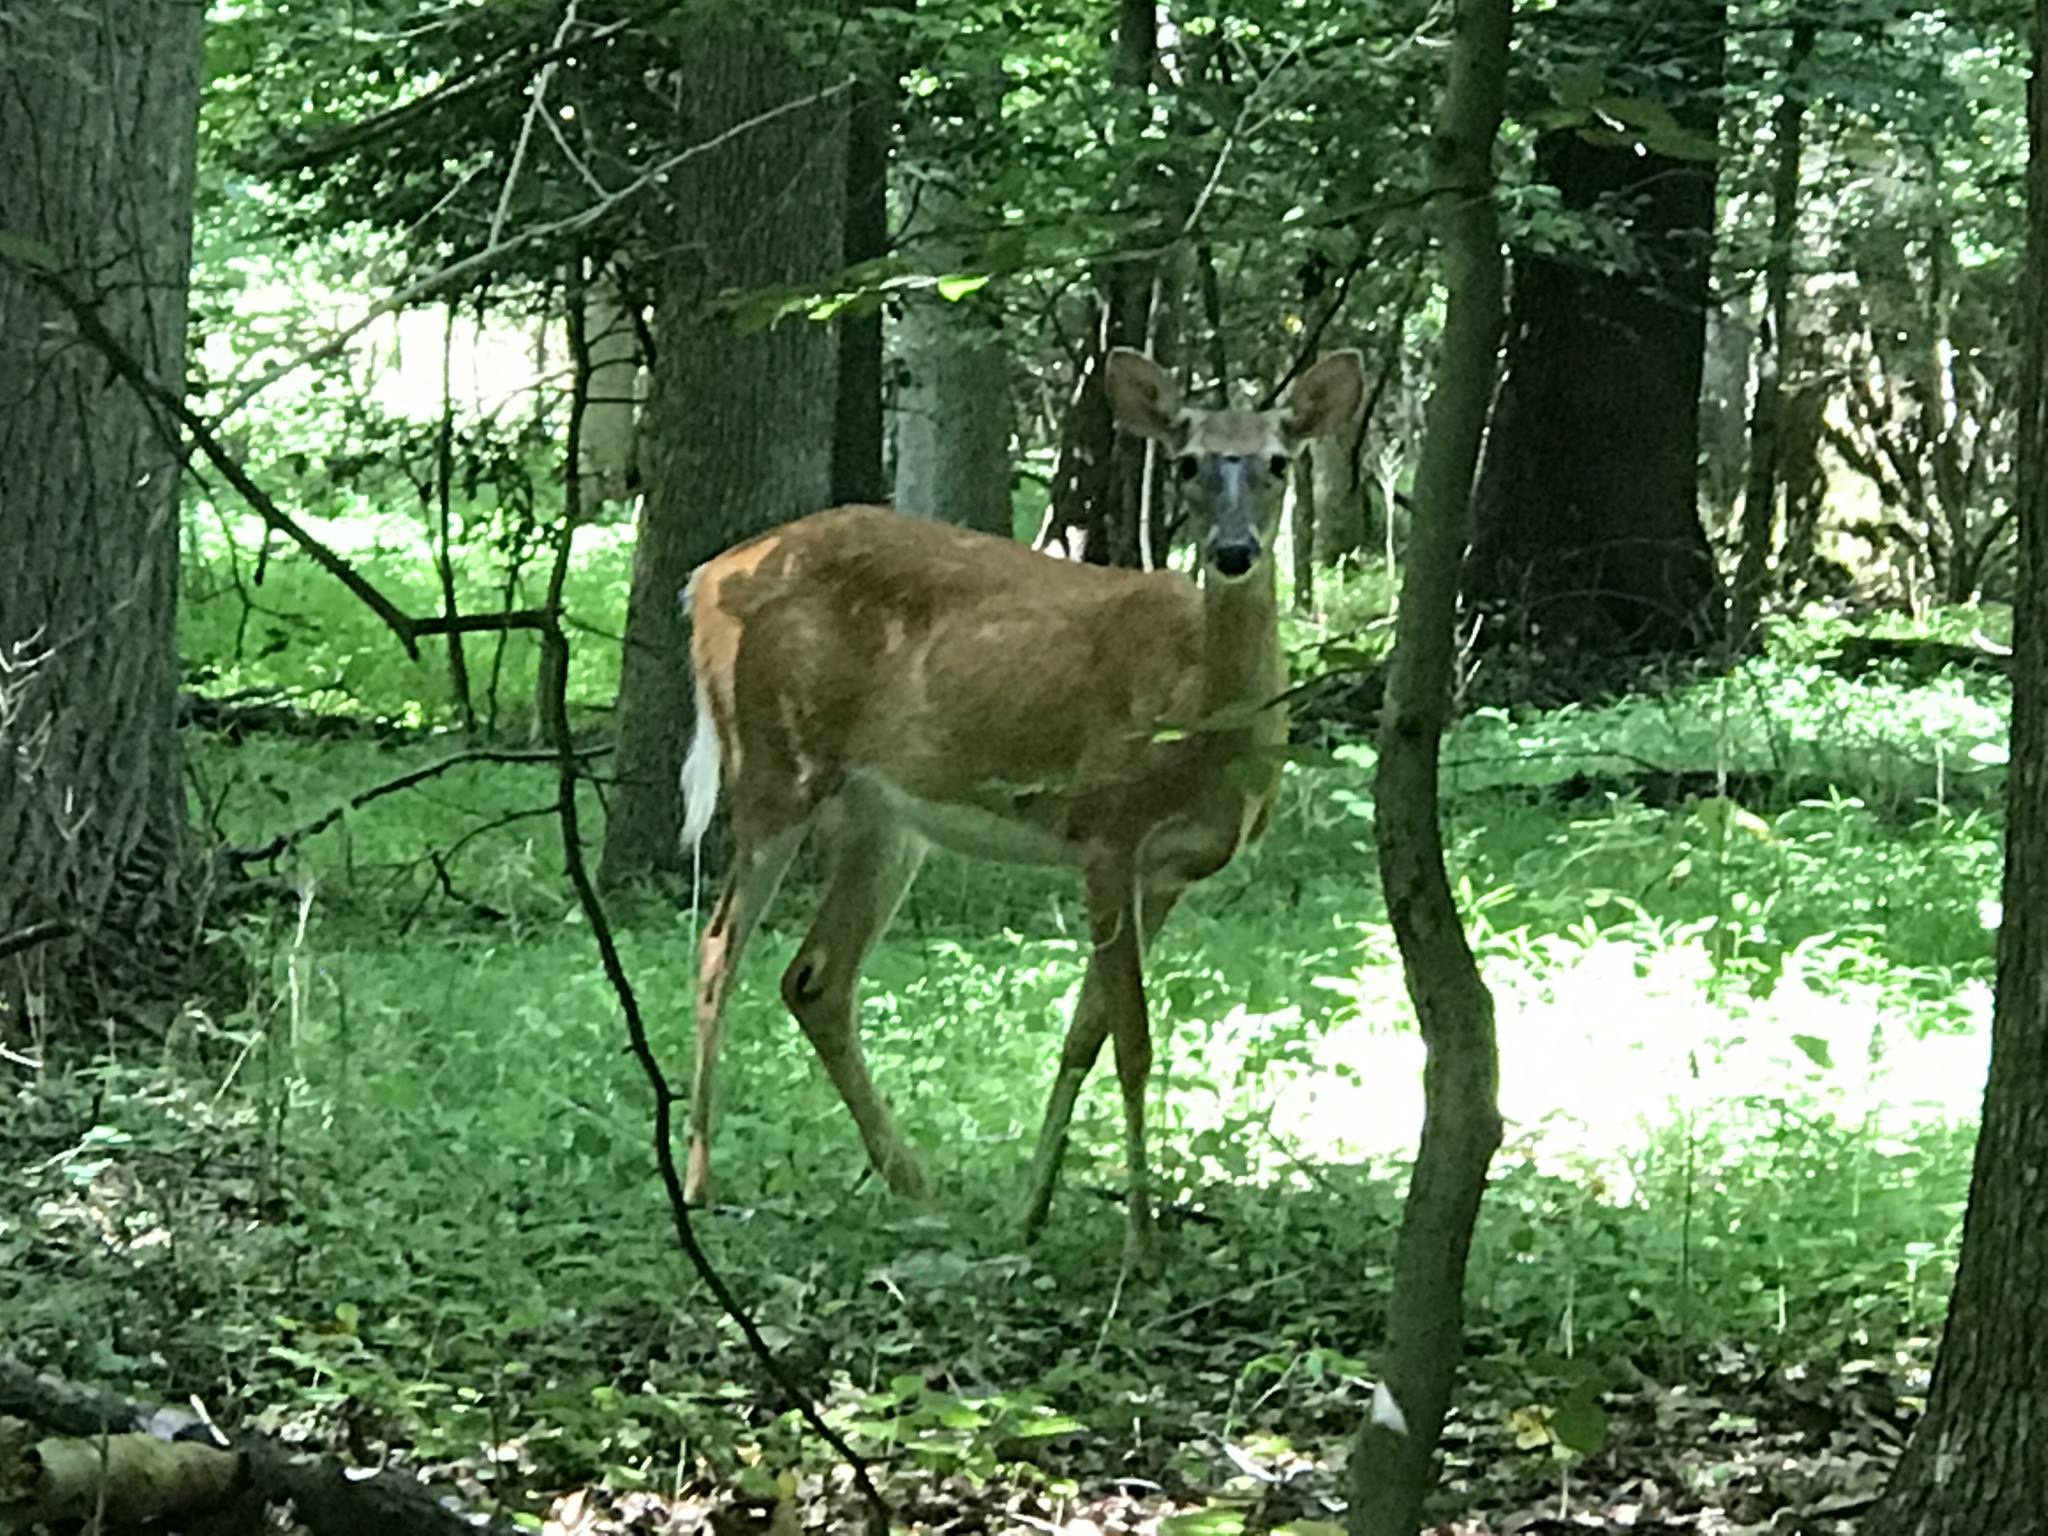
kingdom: Animalia
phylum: Chordata
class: Mammalia
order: Artiodactyla
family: Cervidae
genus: Odocoileus
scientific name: Odocoileus virginianus
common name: White-tailed deer
